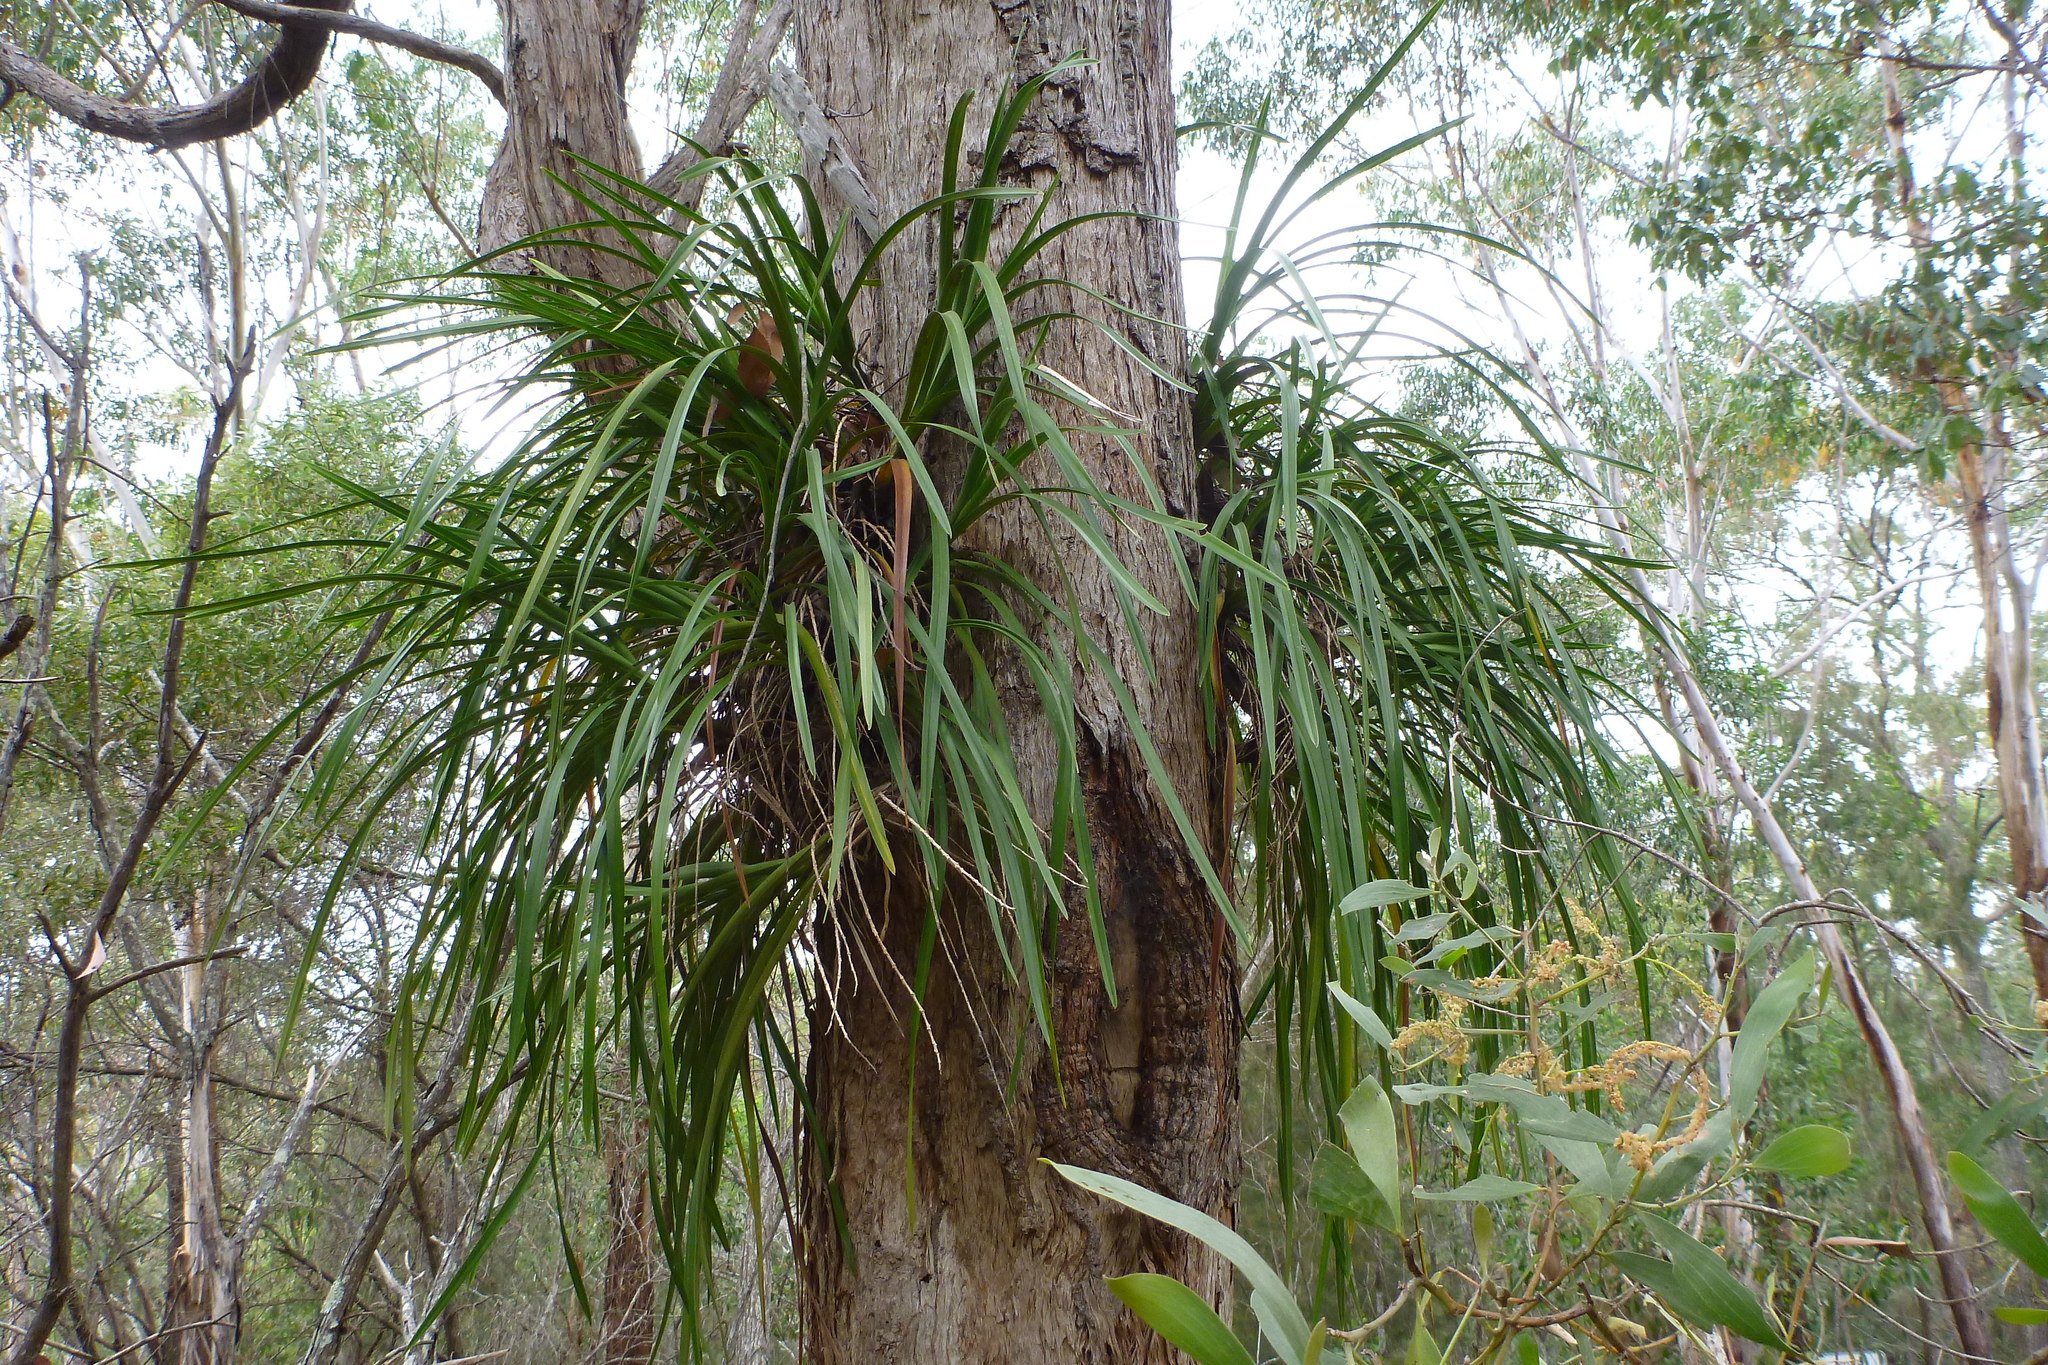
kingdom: Plantae
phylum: Tracheophyta
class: Liliopsida
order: Asparagales
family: Orchidaceae
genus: Cymbidium
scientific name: Cymbidium suave
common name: Snake orchid
